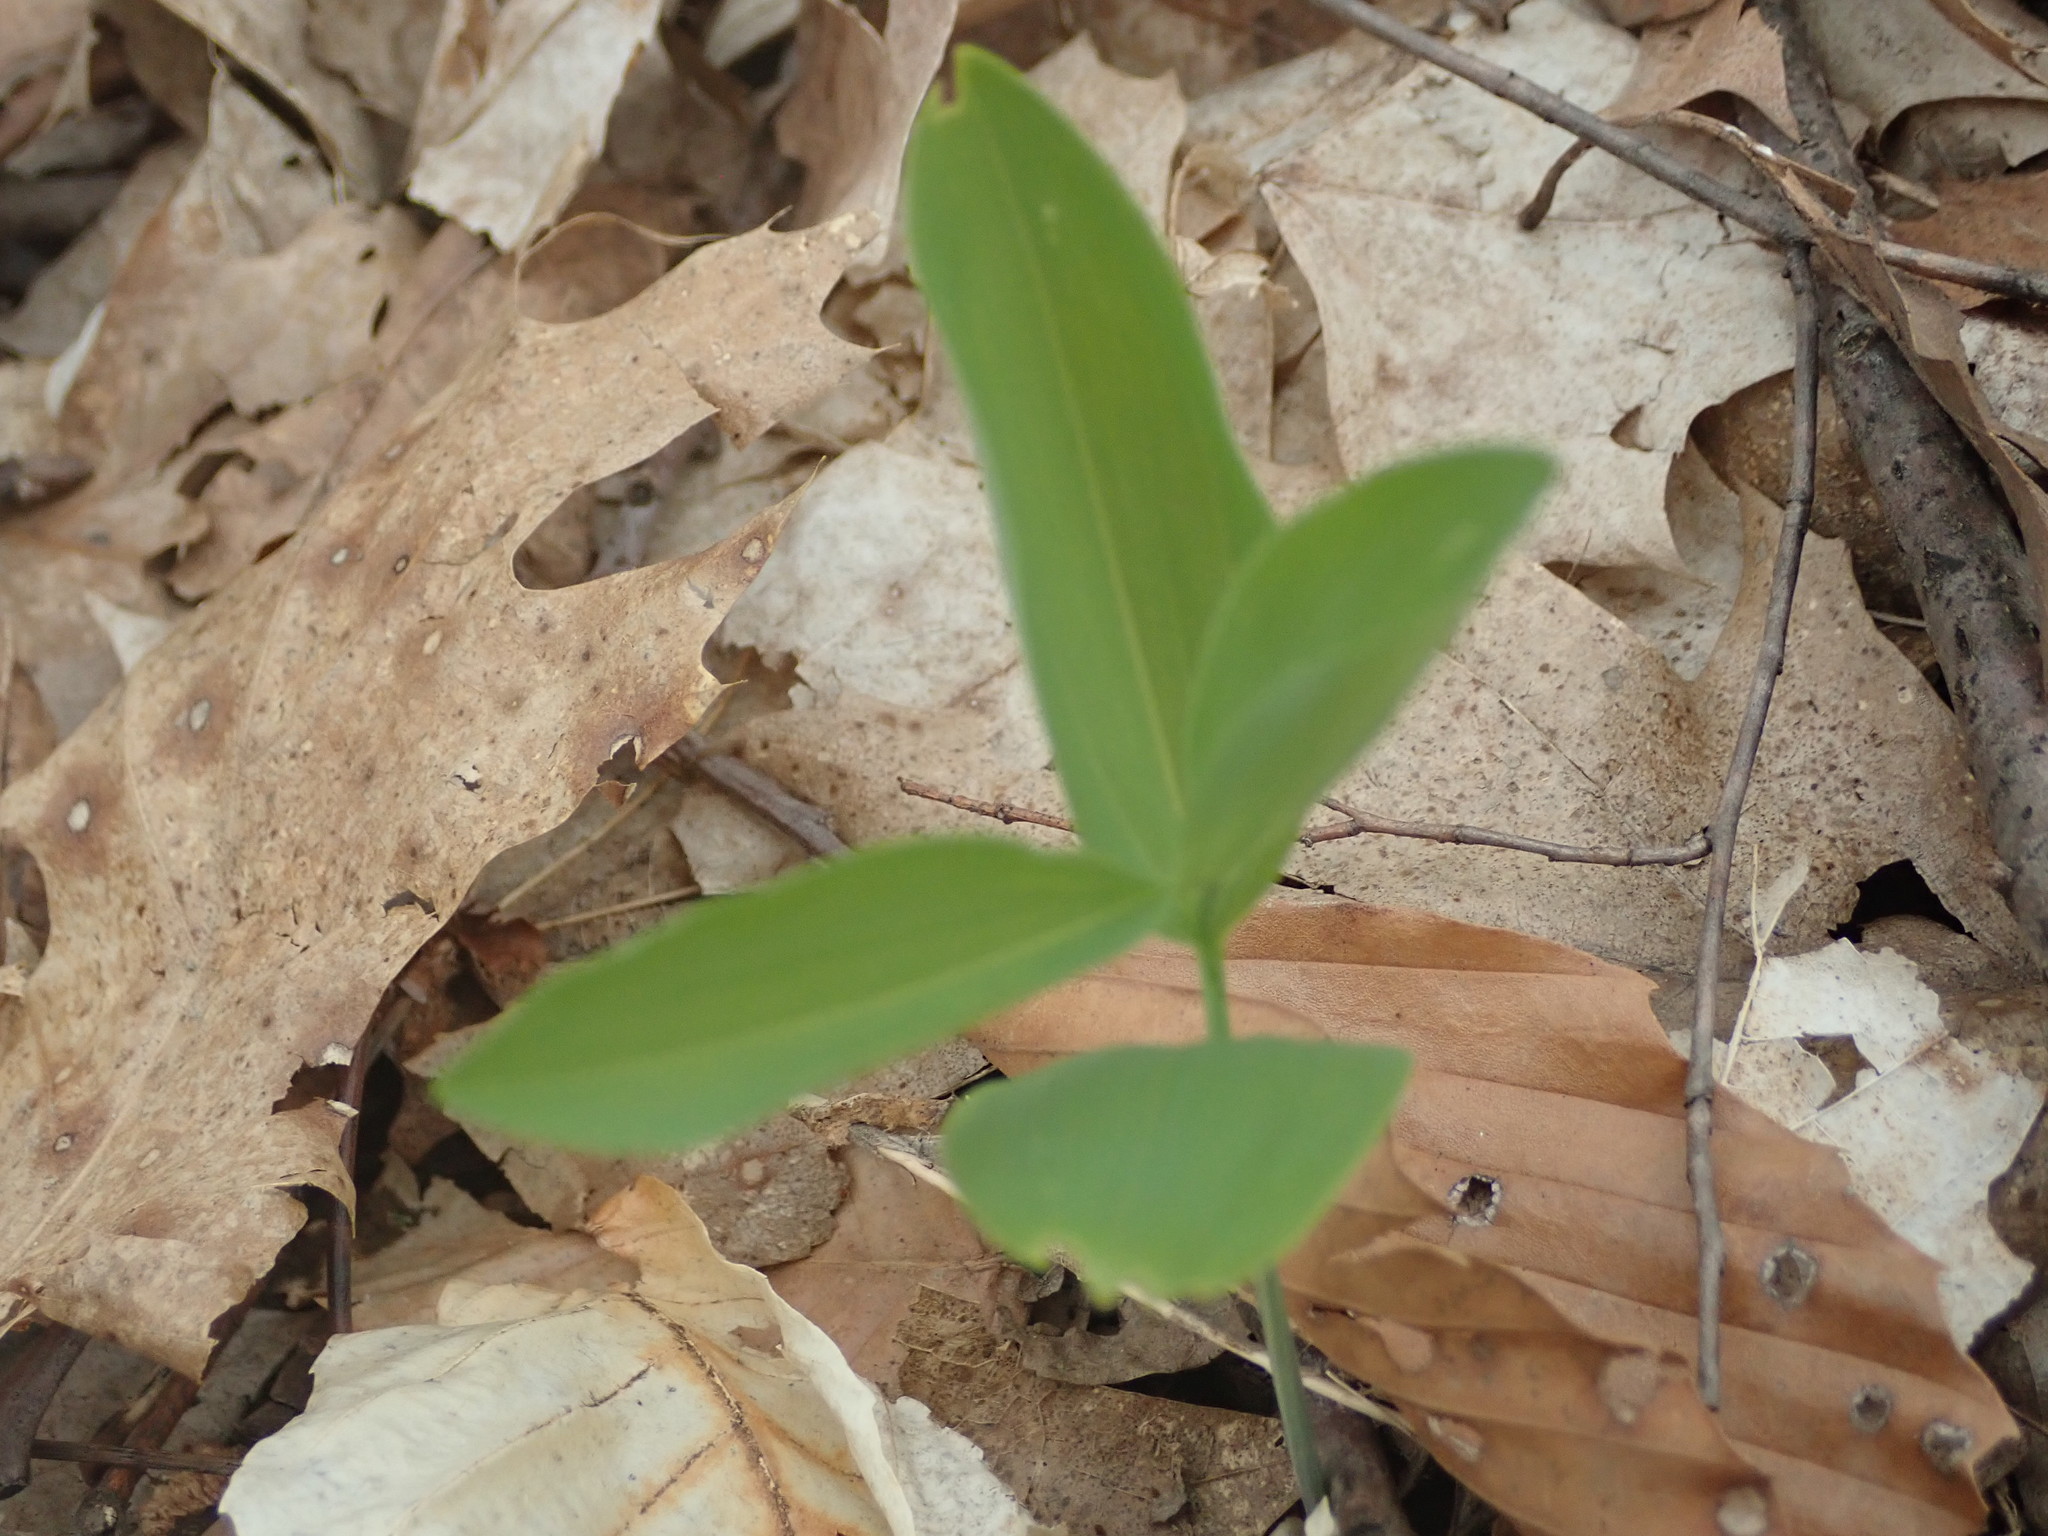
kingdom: Plantae
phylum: Tracheophyta
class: Liliopsida
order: Asparagales
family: Asparagaceae
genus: Polygonatum
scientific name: Polygonatum biflorum
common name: American solomon's-seal
